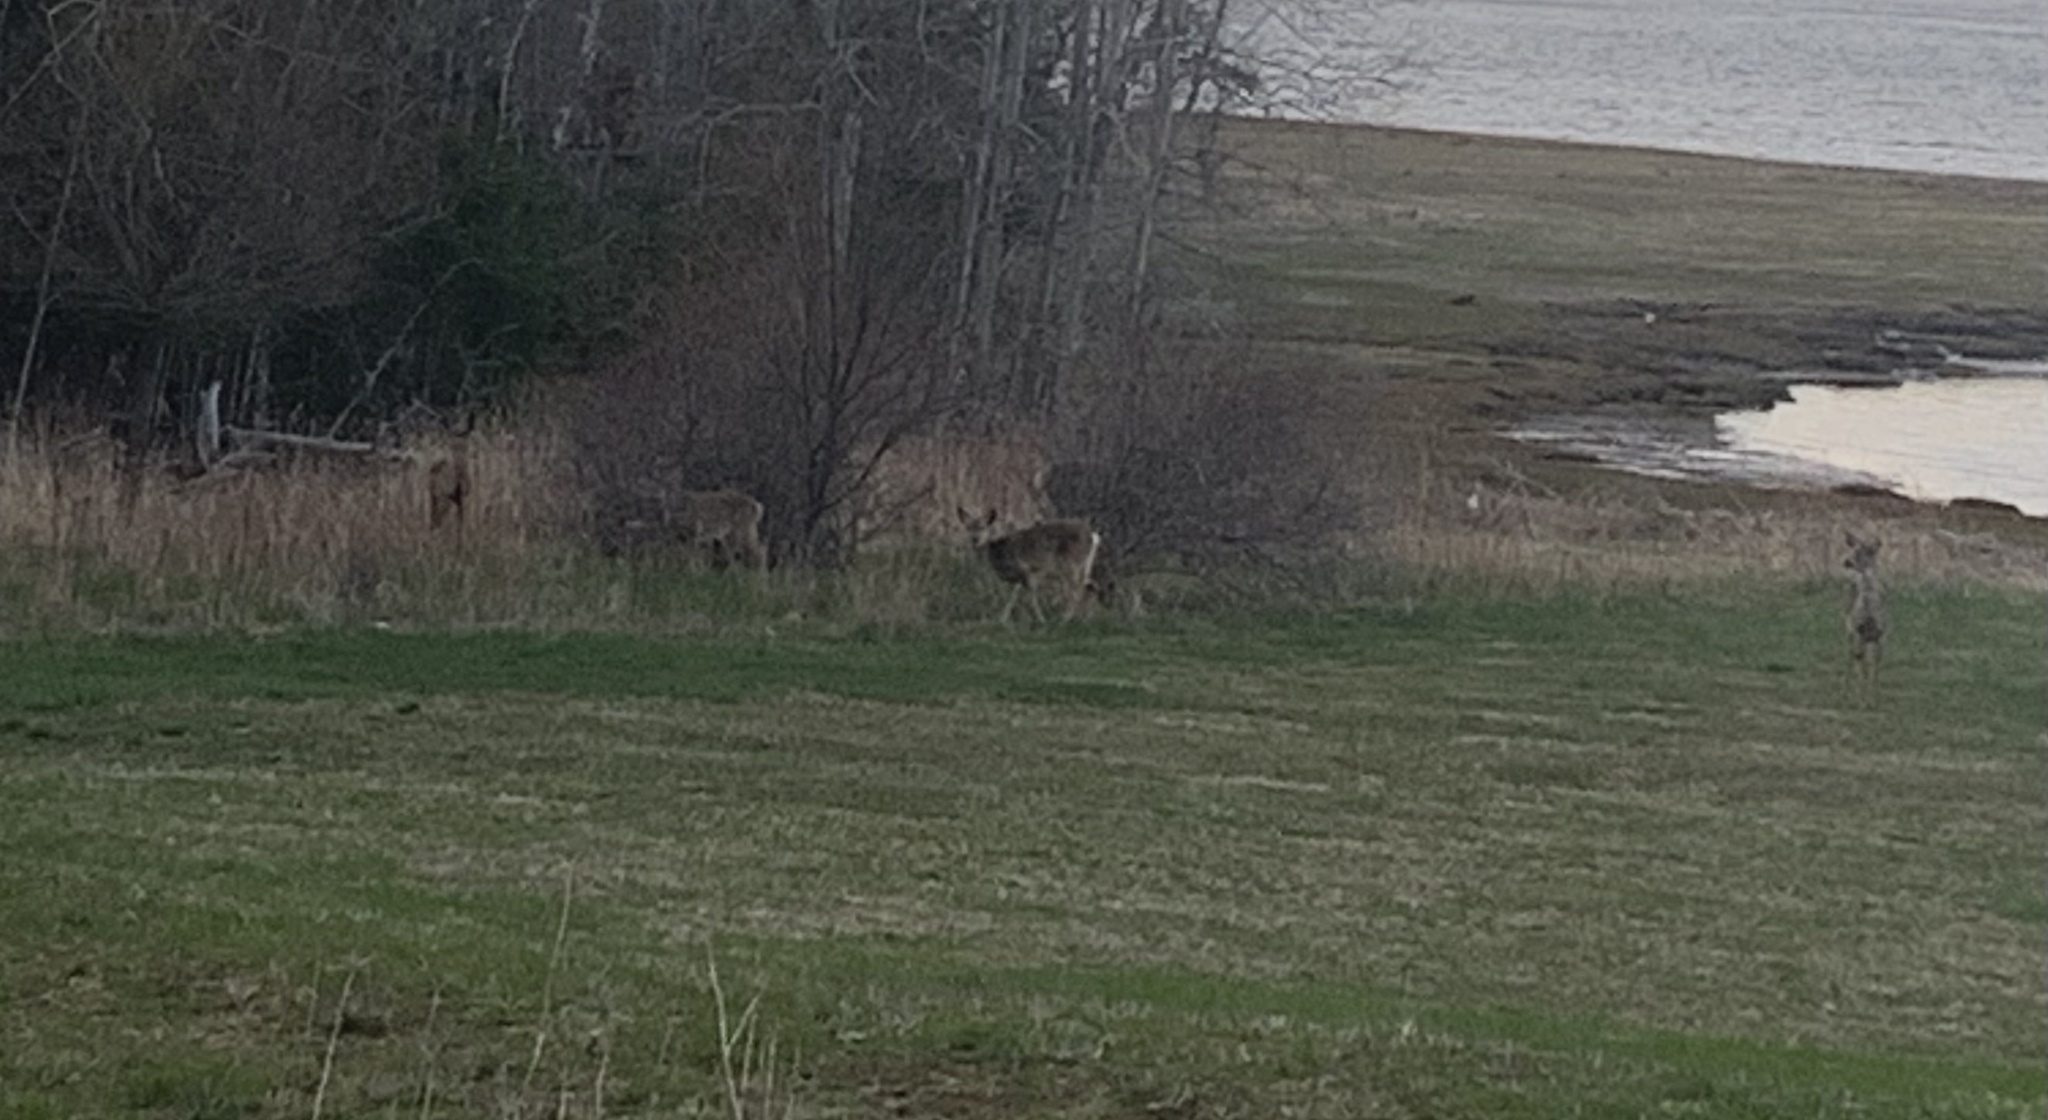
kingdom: Animalia
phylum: Chordata
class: Mammalia
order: Artiodactyla
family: Cervidae
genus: Odocoileus
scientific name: Odocoileus virginianus
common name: White-tailed deer
